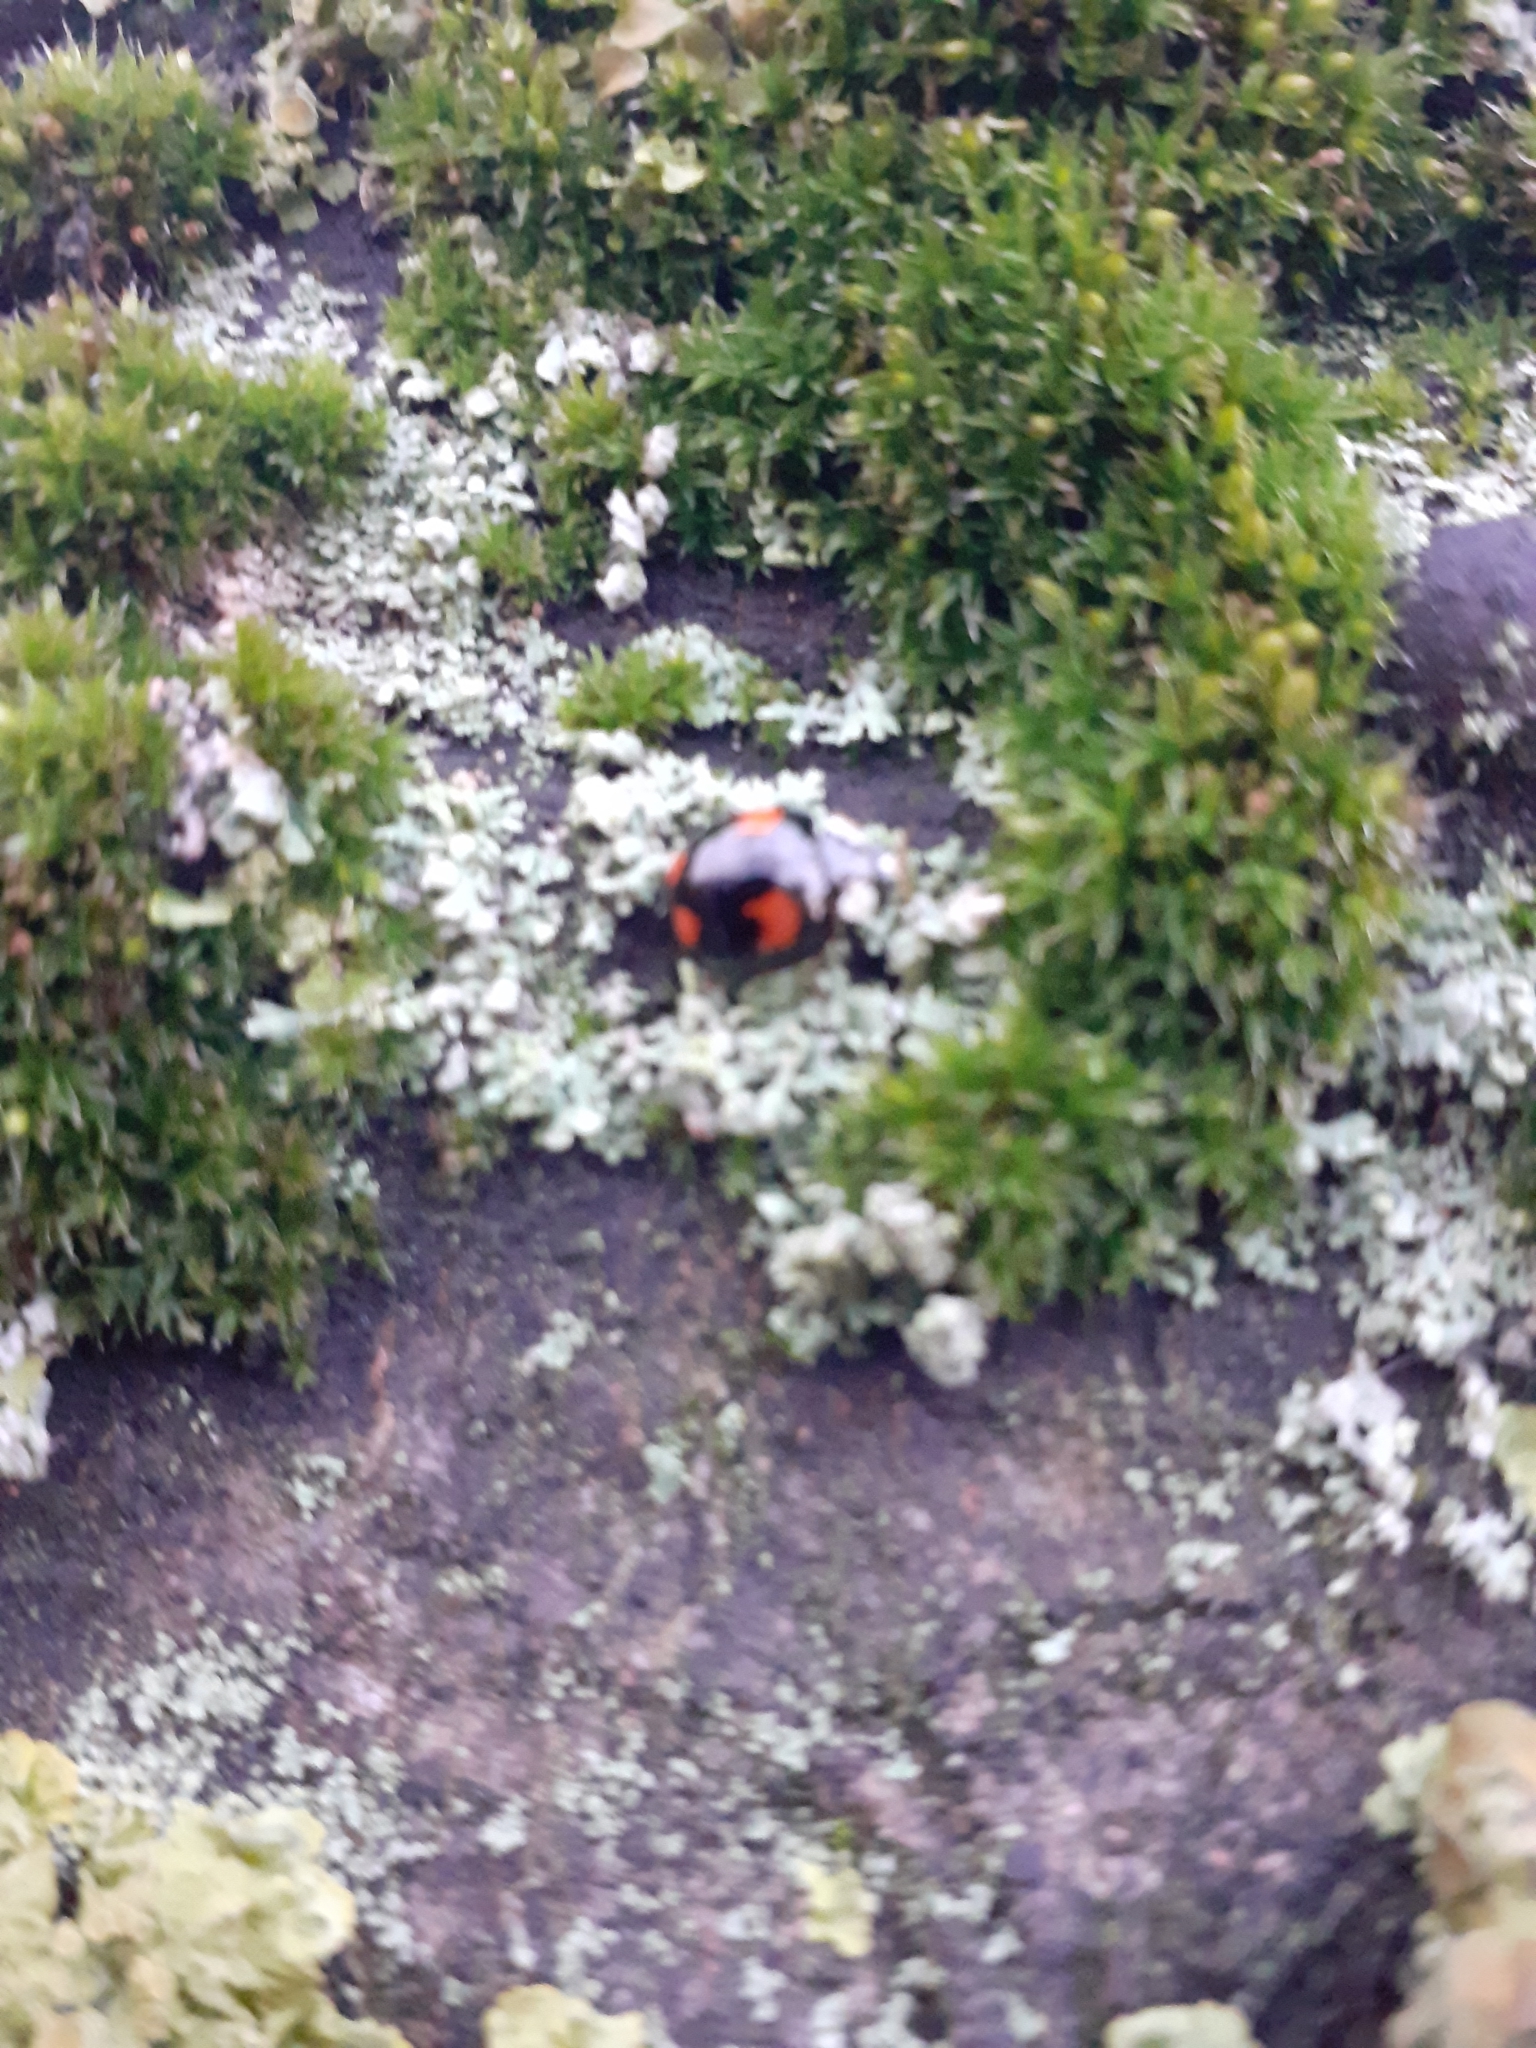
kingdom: Animalia
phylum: Arthropoda
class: Insecta
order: Coleoptera
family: Coccinellidae
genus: Harmonia
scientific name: Harmonia axyridis
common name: Harlequin ladybird
